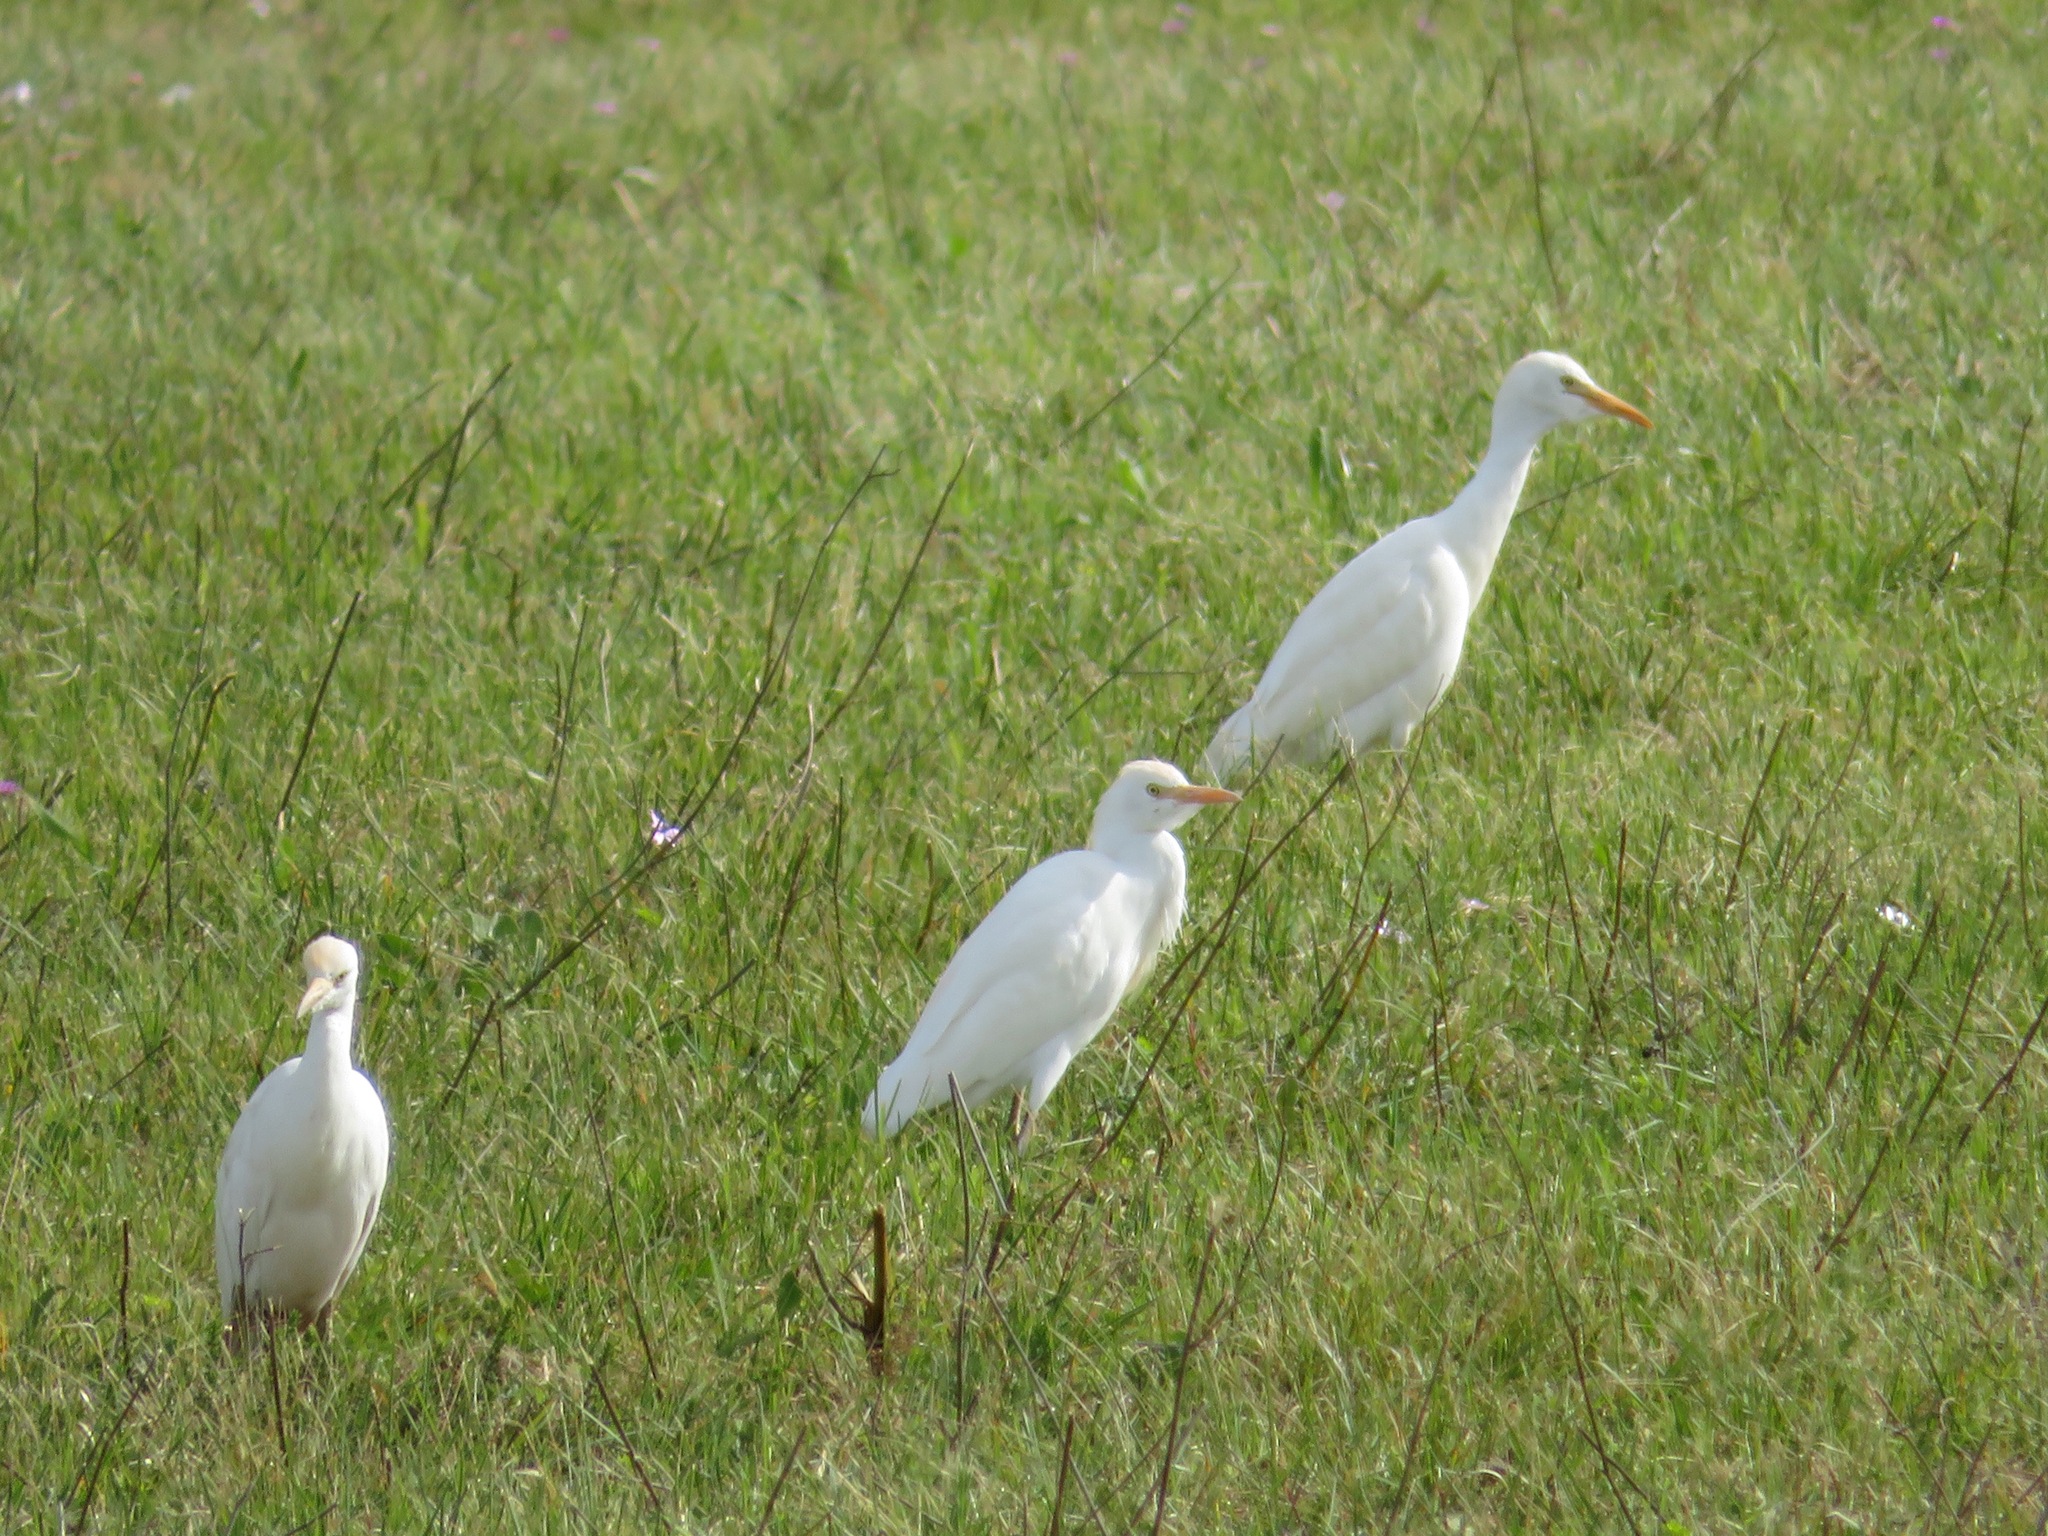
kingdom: Animalia
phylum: Chordata
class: Aves
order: Pelecaniformes
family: Ardeidae
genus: Bubulcus
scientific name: Bubulcus ibis
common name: Cattle egret
